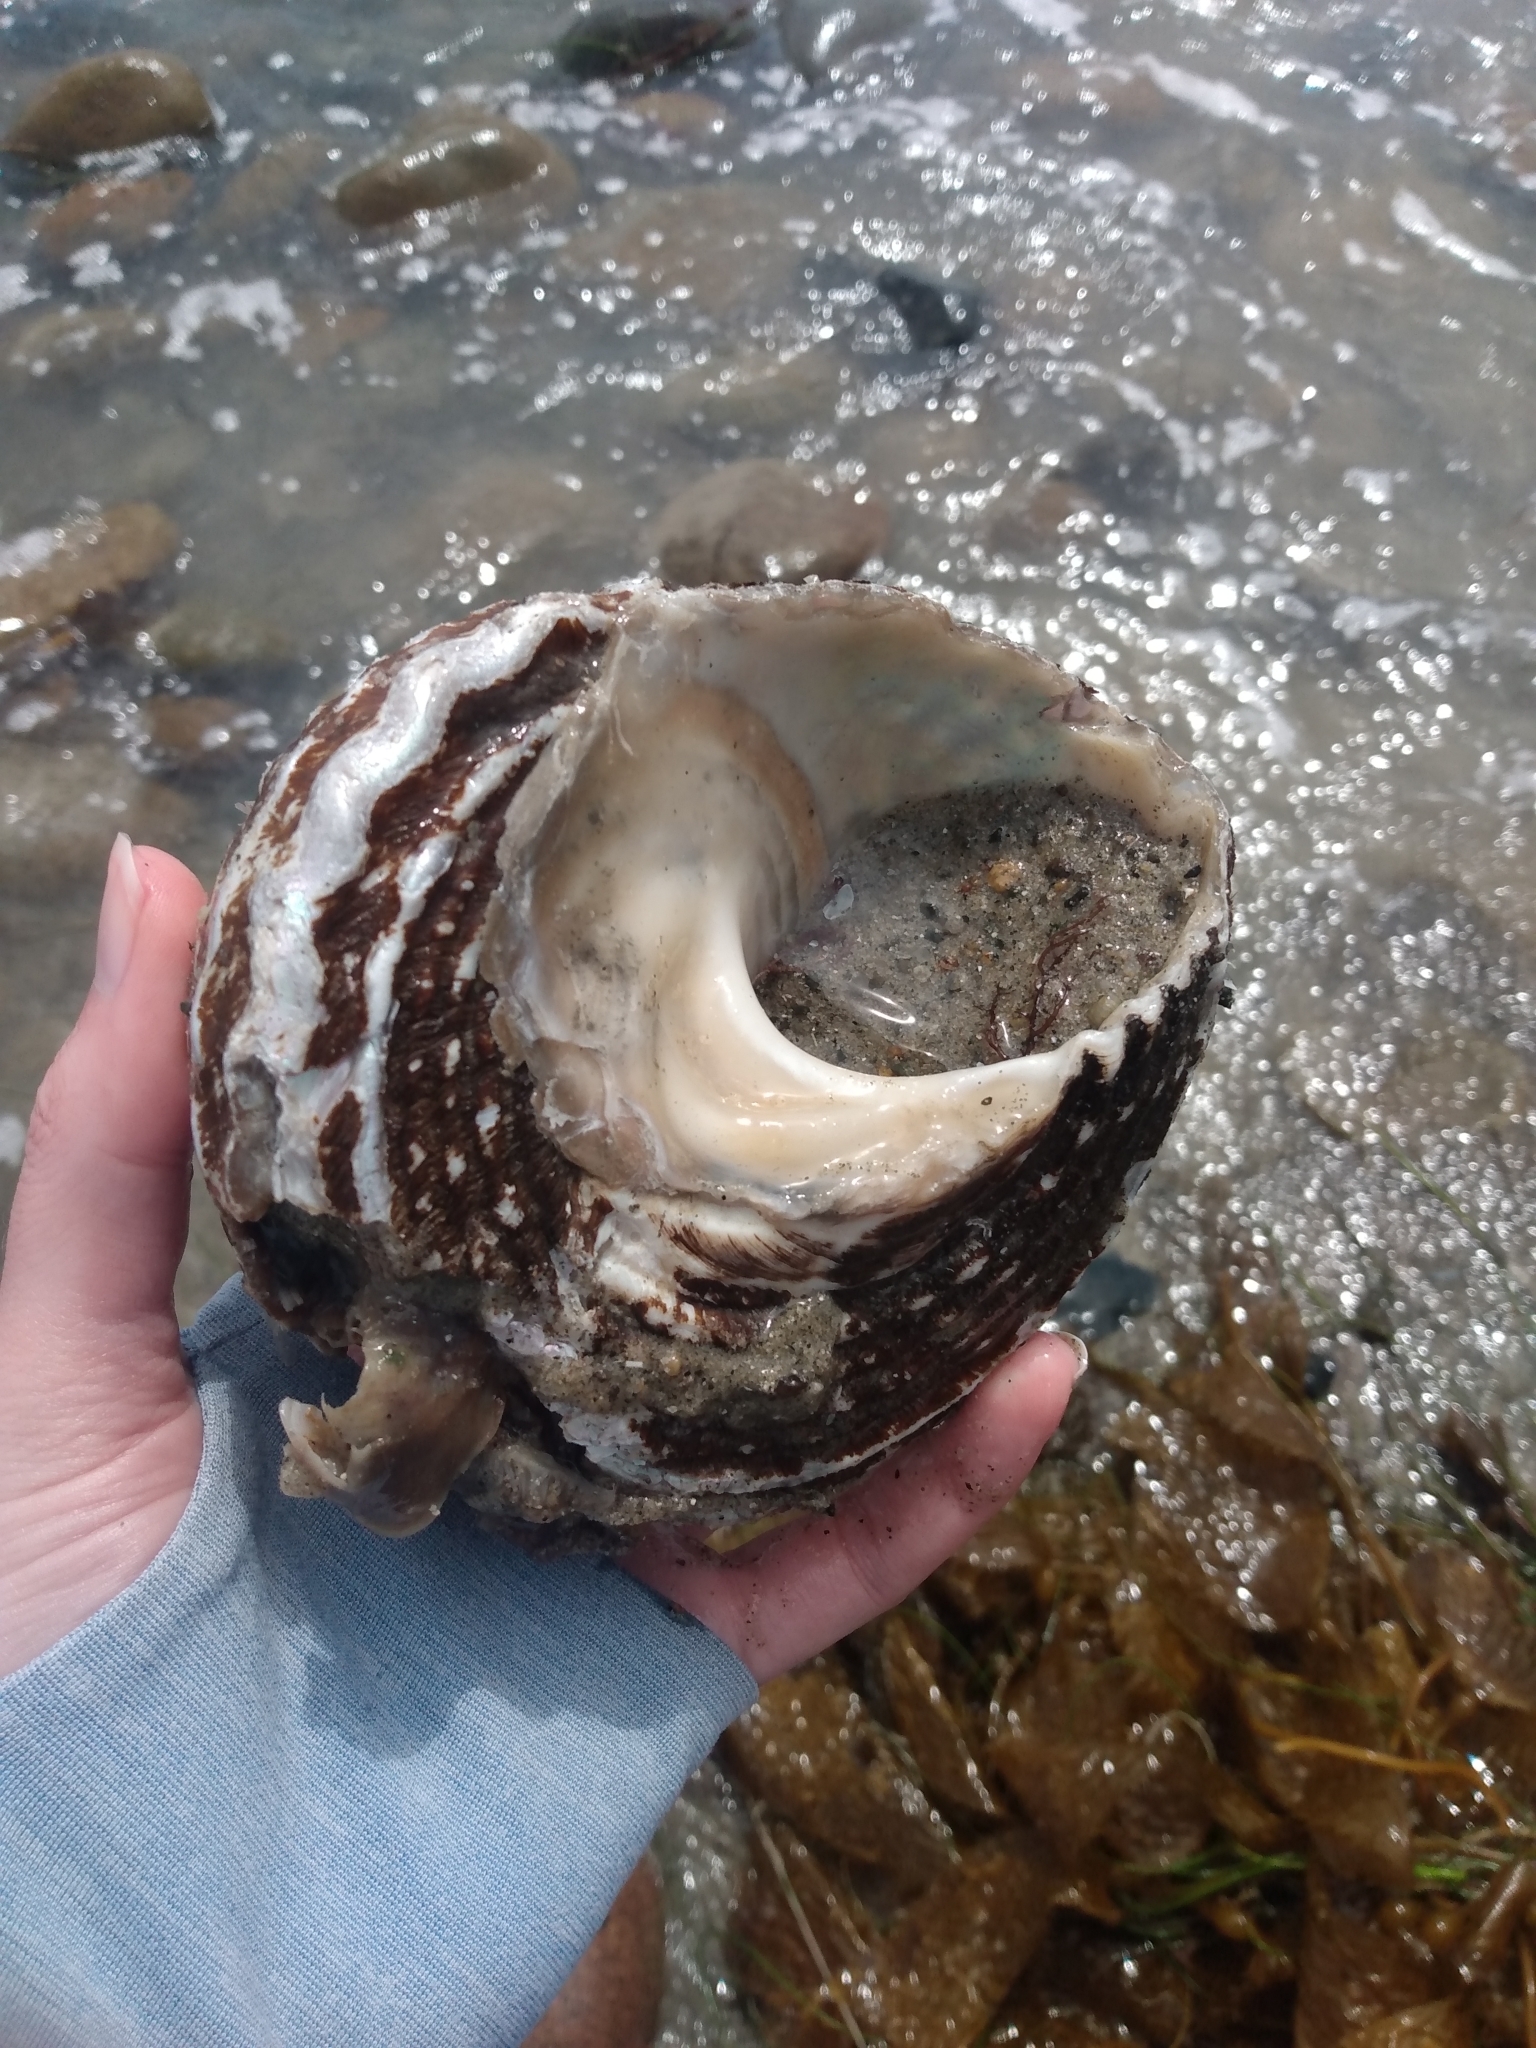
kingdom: Animalia
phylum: Mollusca
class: Gastropoda
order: Trochida
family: Turbinidae
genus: Megastraea
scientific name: Megastraea undosa
